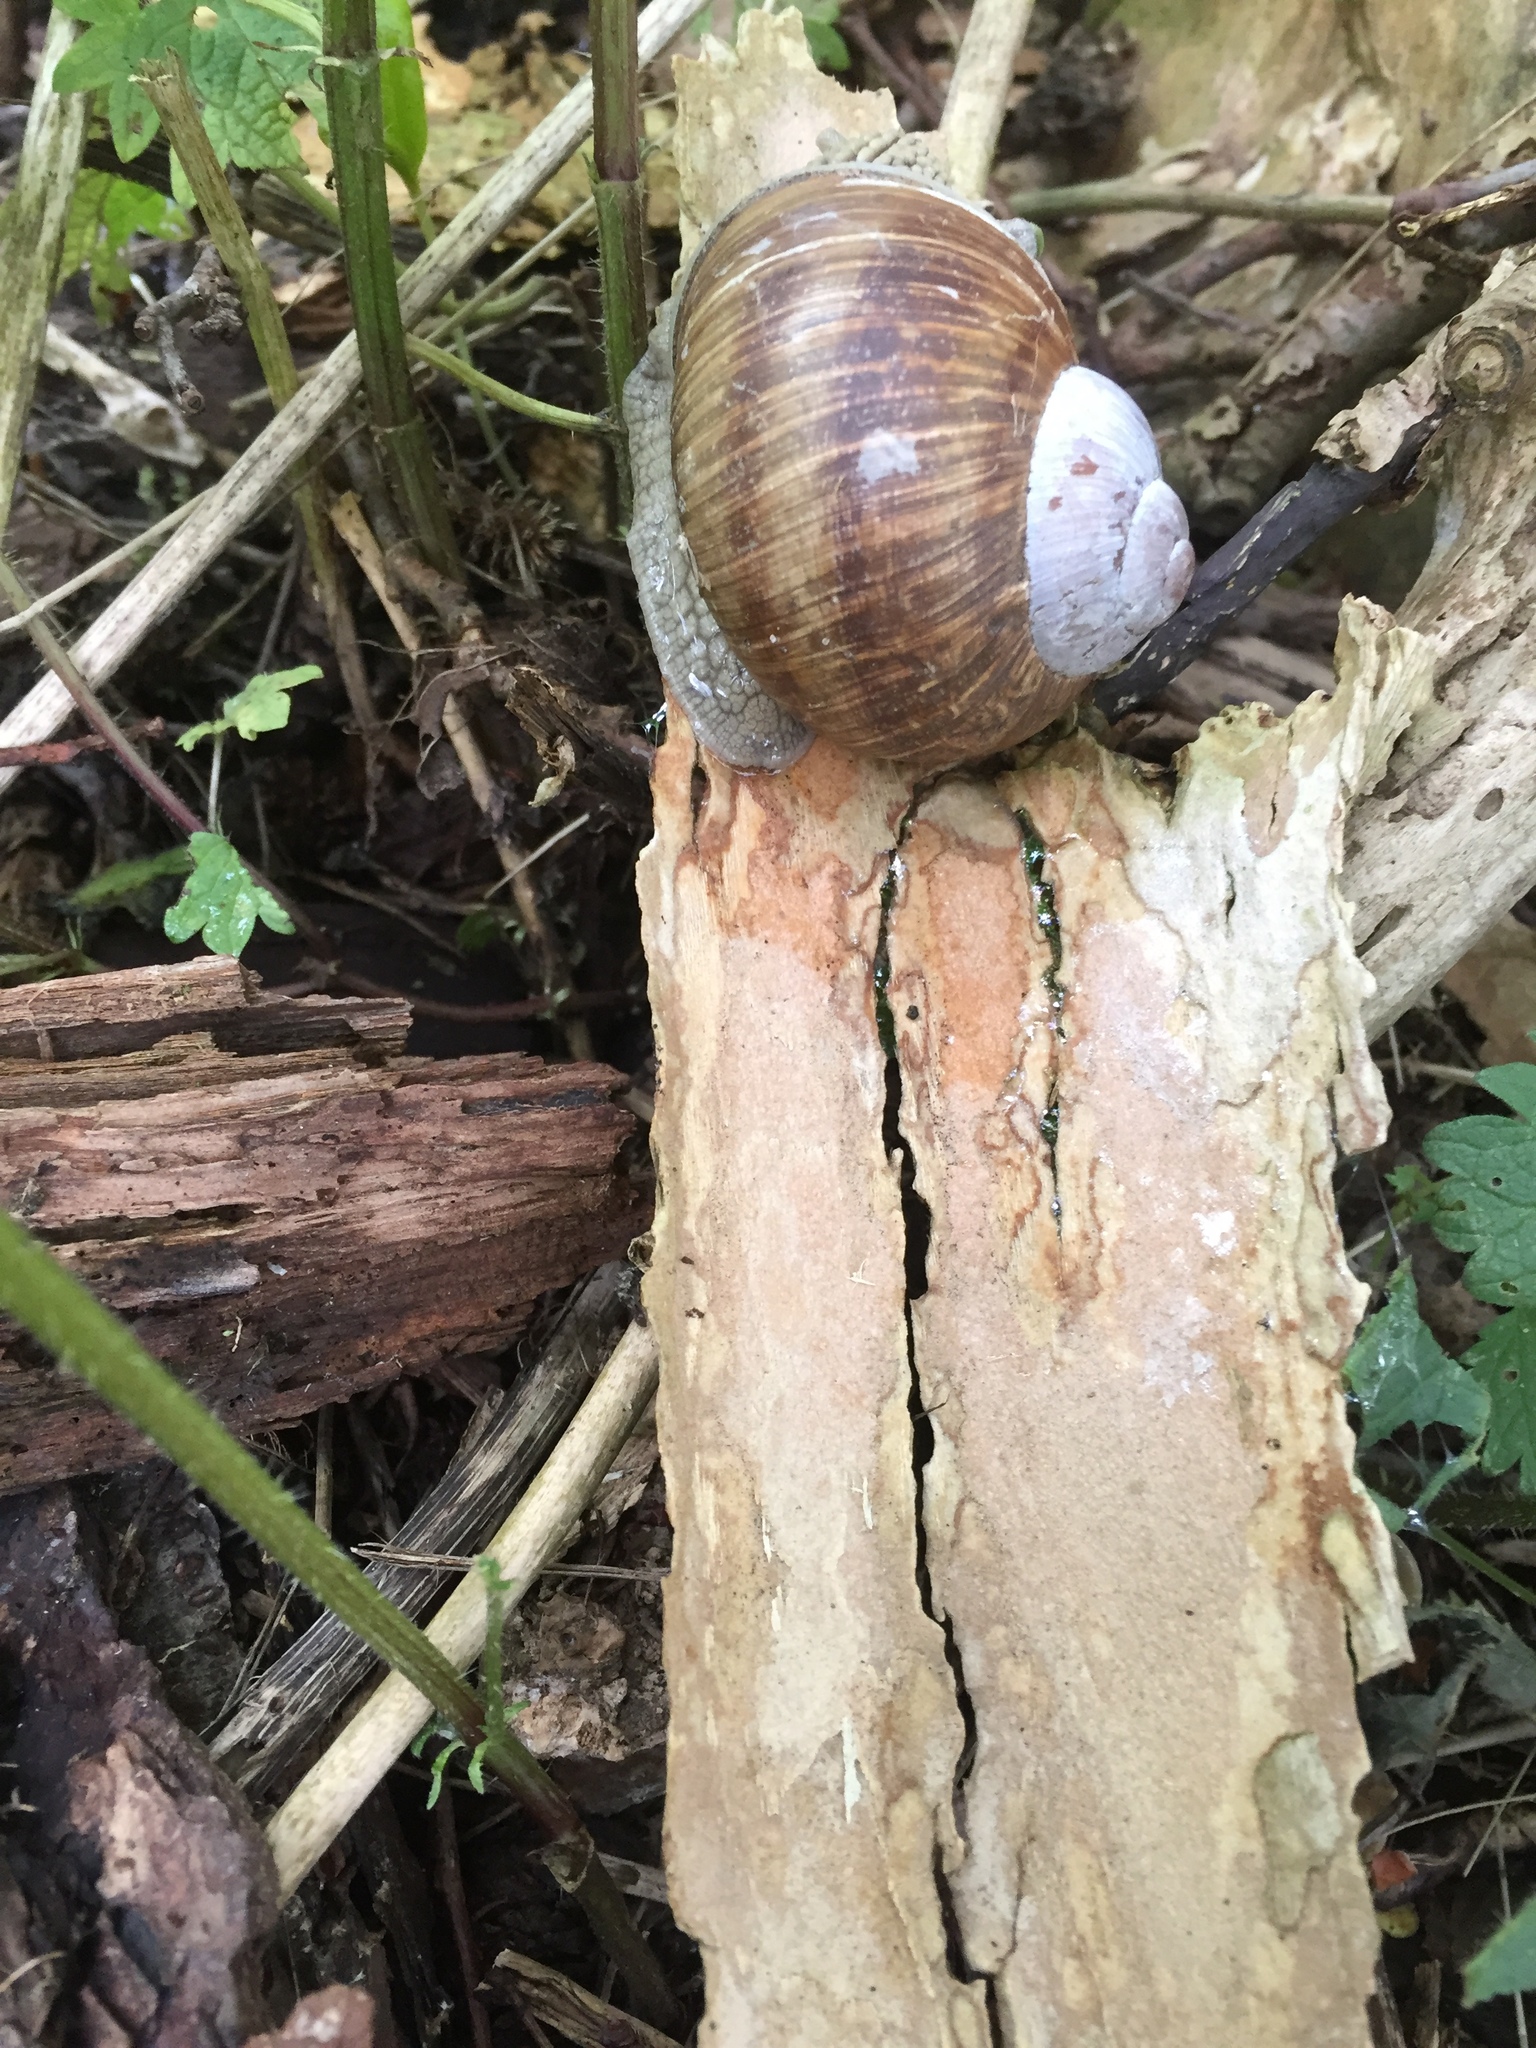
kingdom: Animalia
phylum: Mollusca
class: Gastropoda
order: Stylommatophora
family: Helicidae
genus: Helix
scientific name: Helix pomatia
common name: Roman snail
